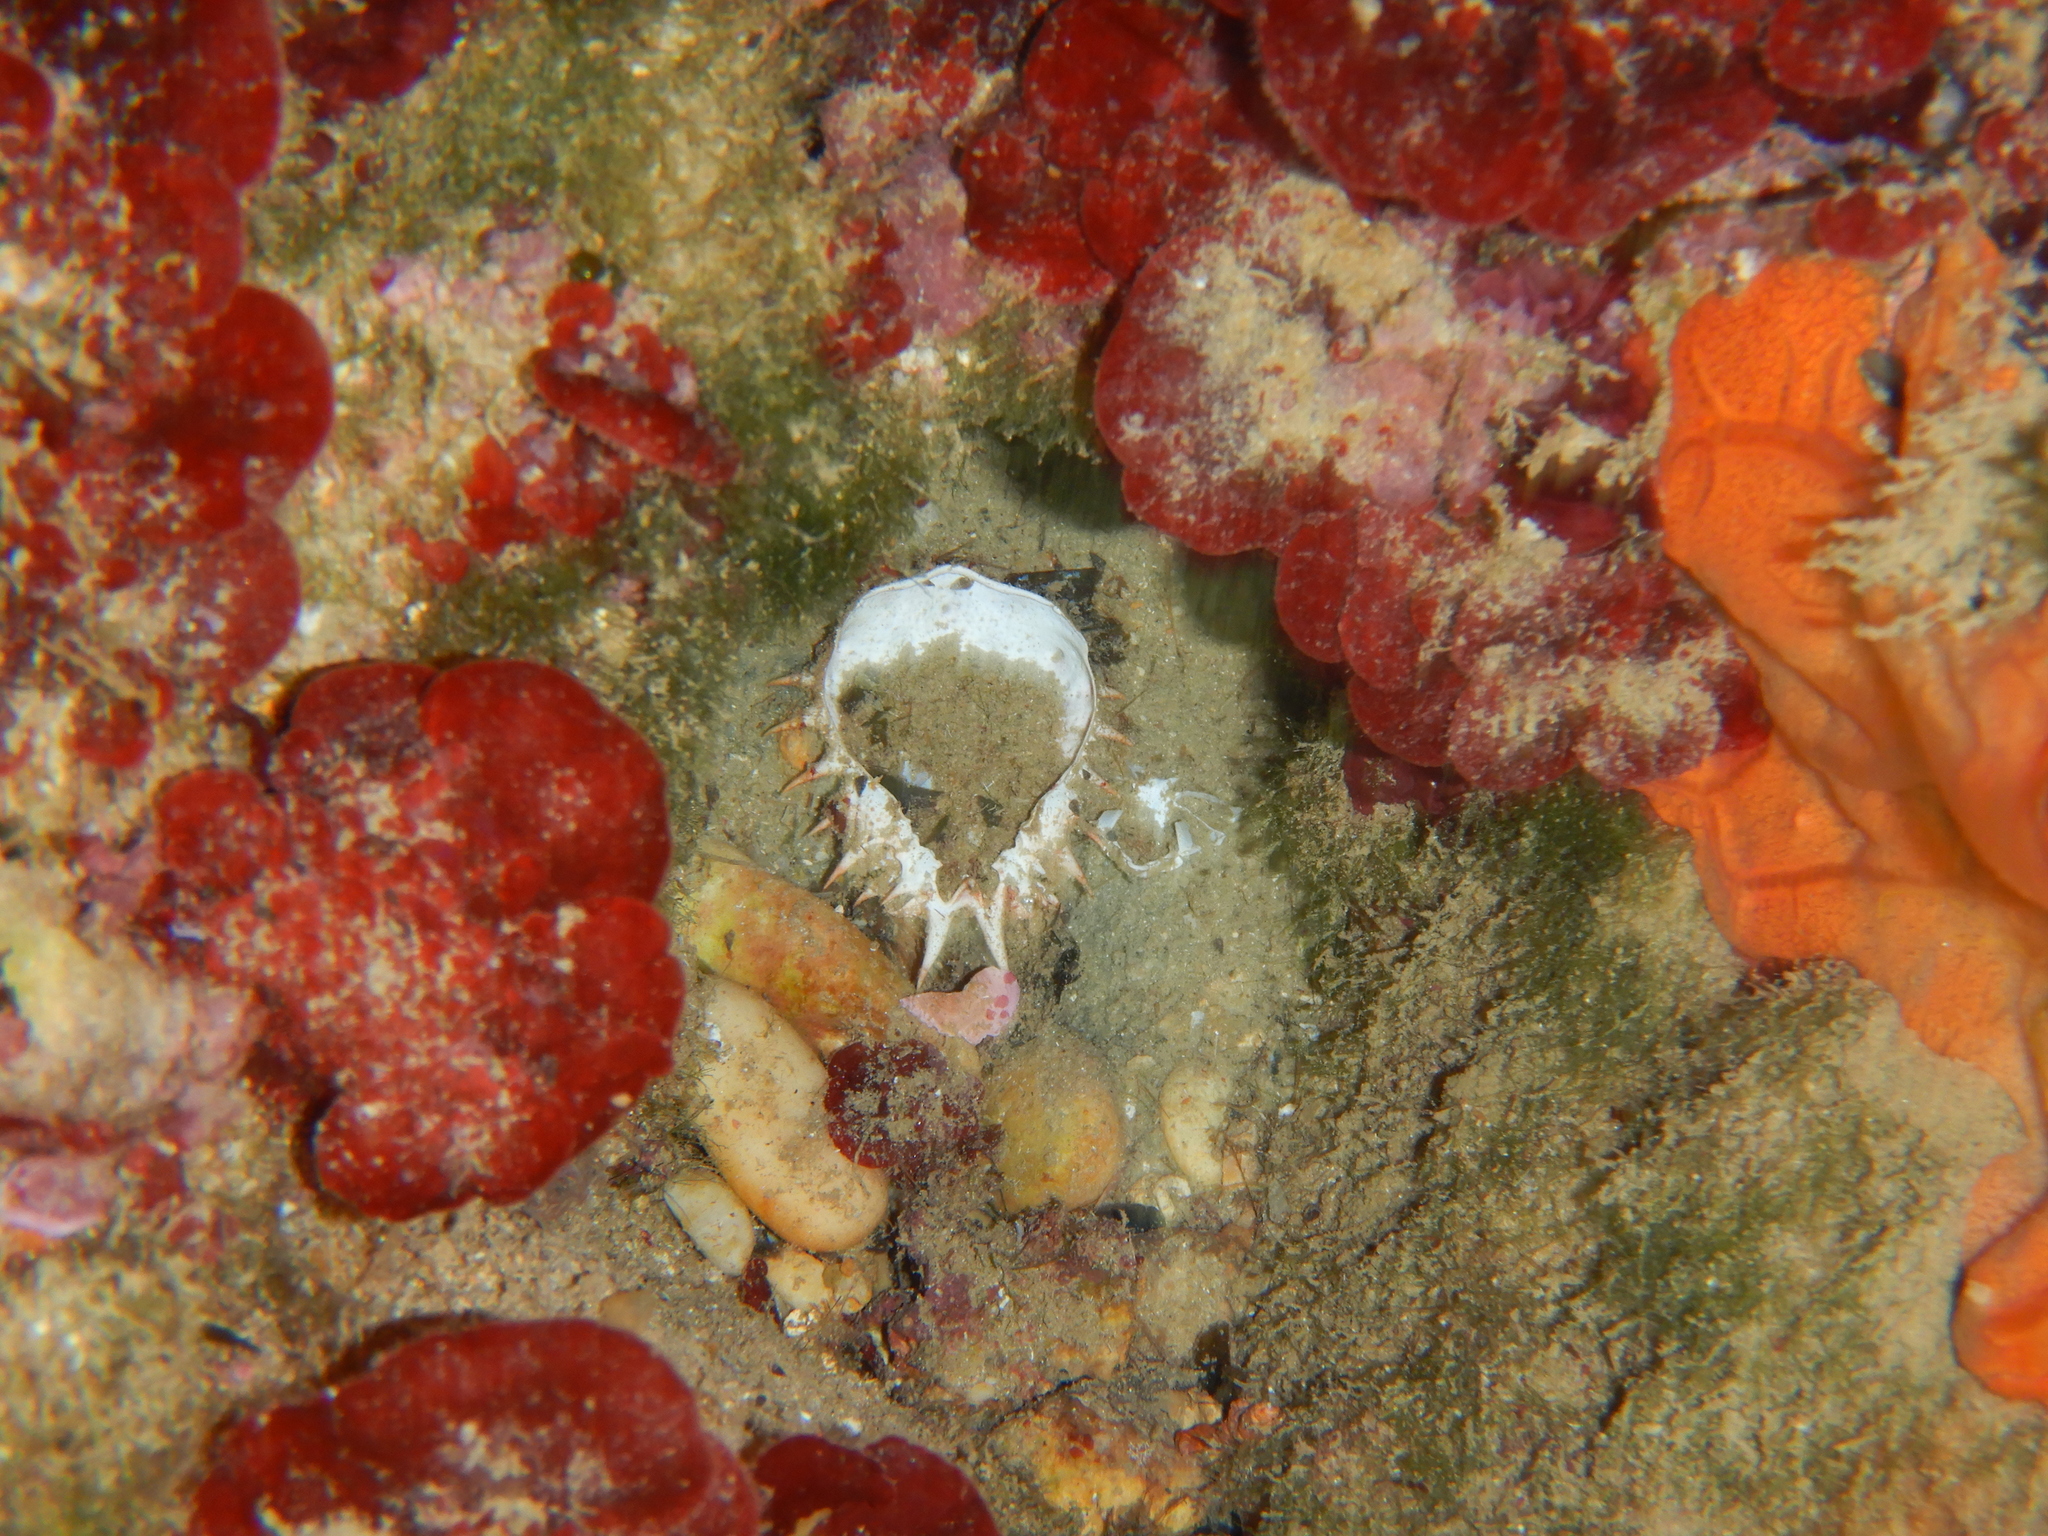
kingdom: Animalia
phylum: Arthropoda
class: Malacostraca
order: Decapoda
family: Majidae
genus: Maja
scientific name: Maja
